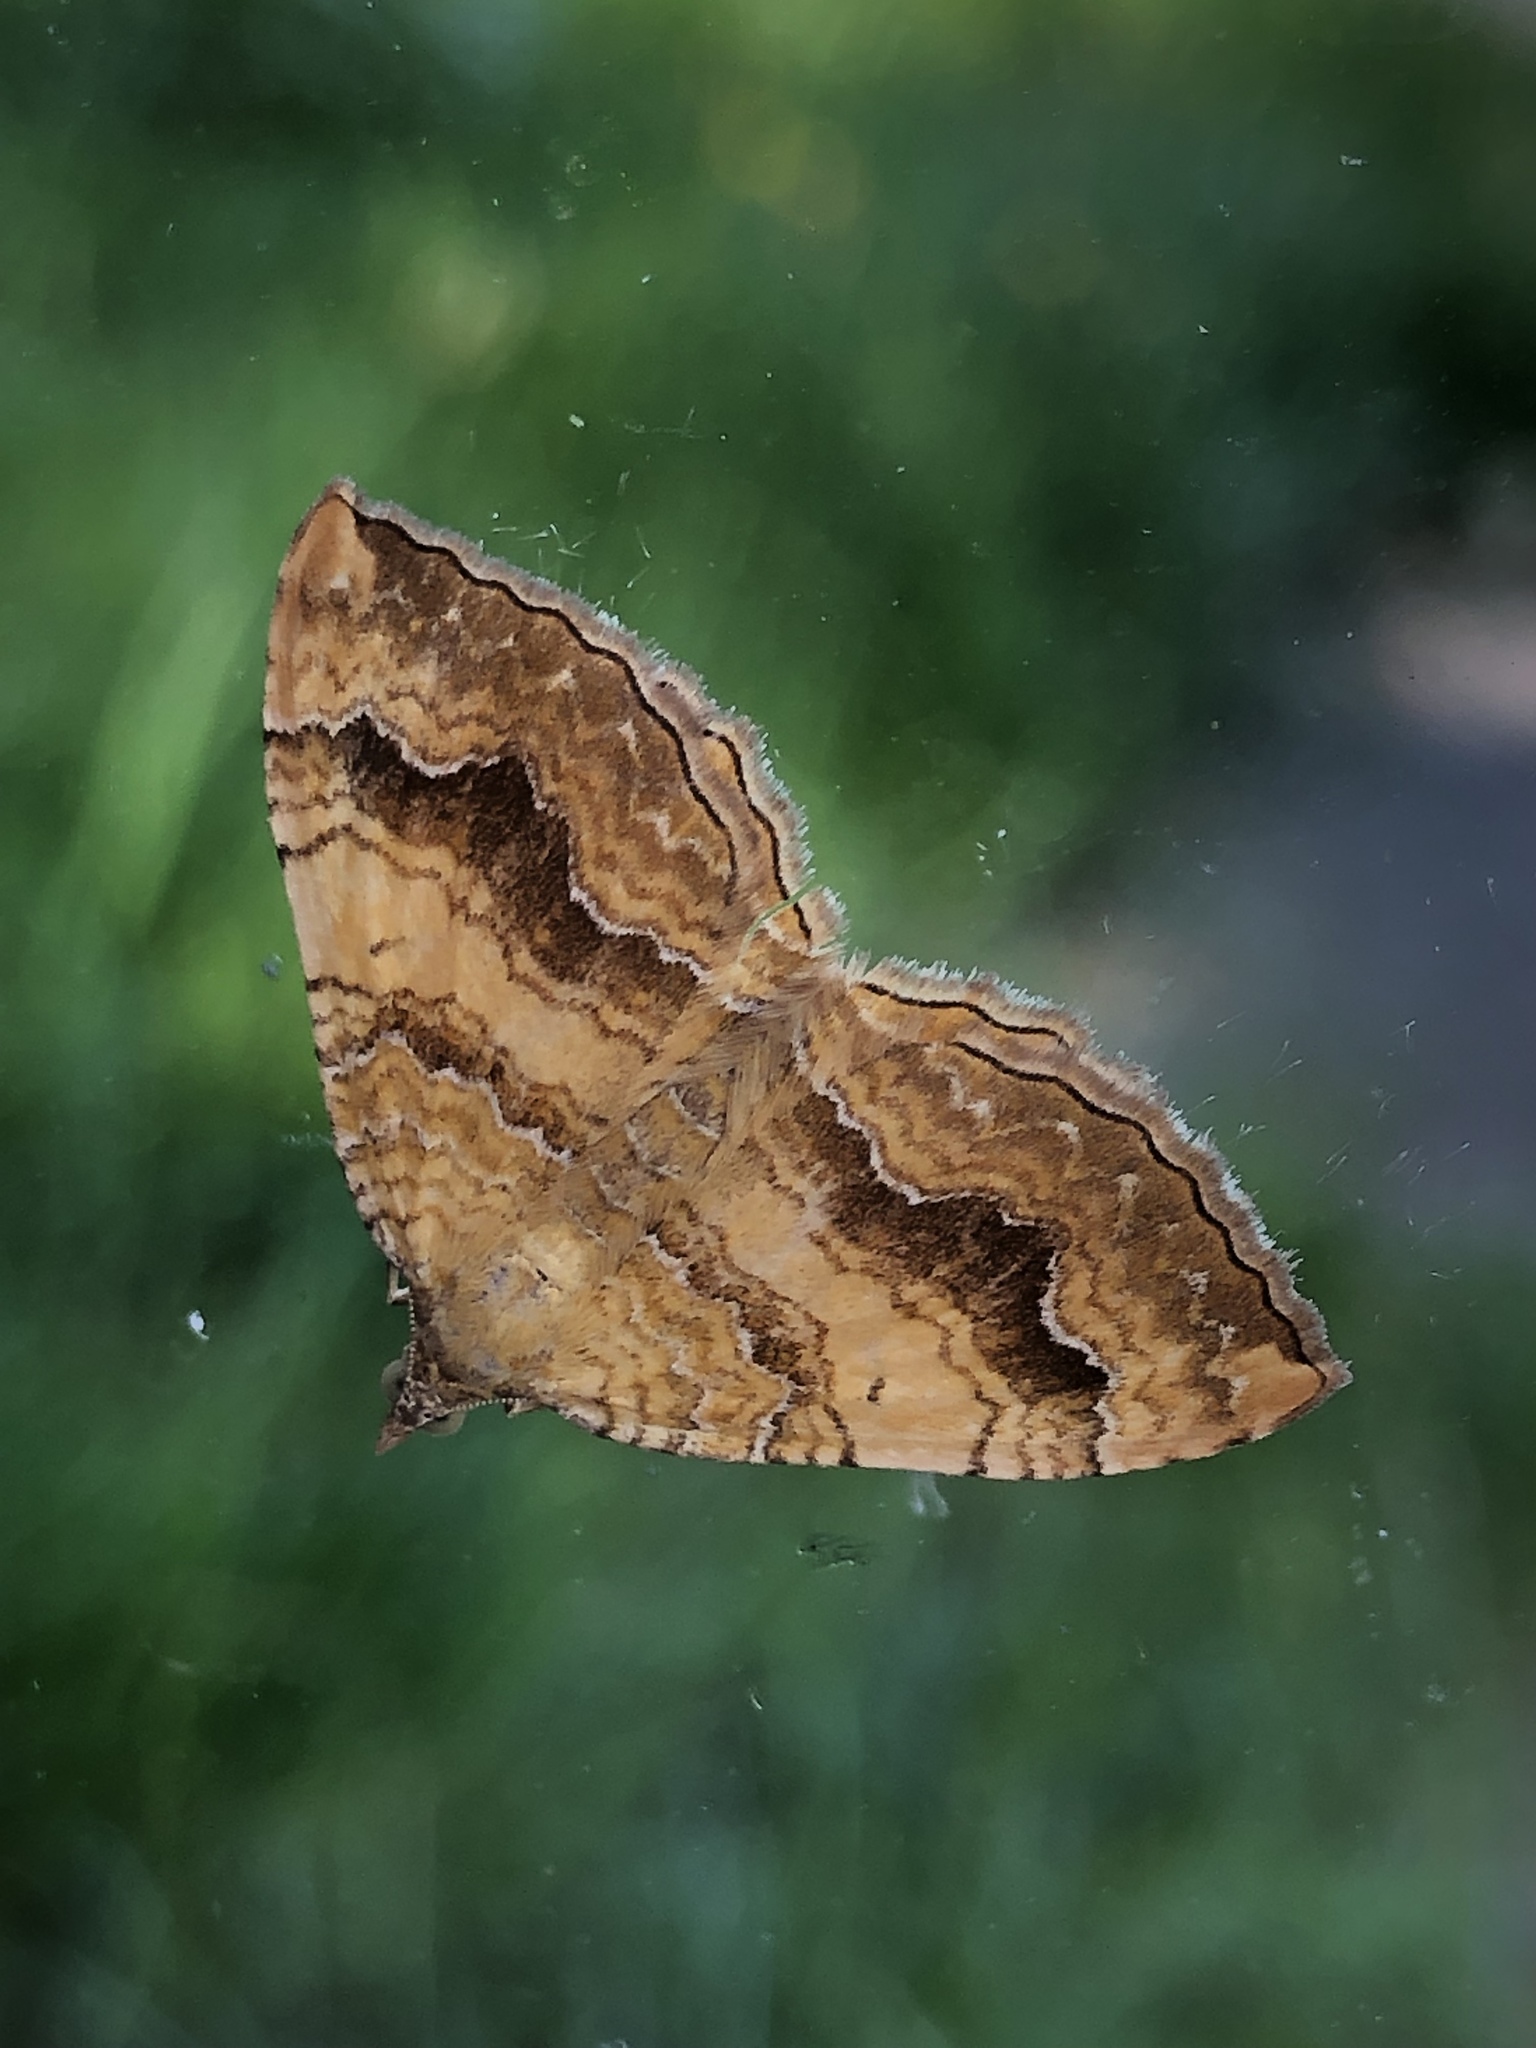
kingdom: Animalia
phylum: Arthropoda
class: Insecta
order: Lepidoptera
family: Geometridae
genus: Camptogramma
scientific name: Camptogramma bilineata
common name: Yellow shell
